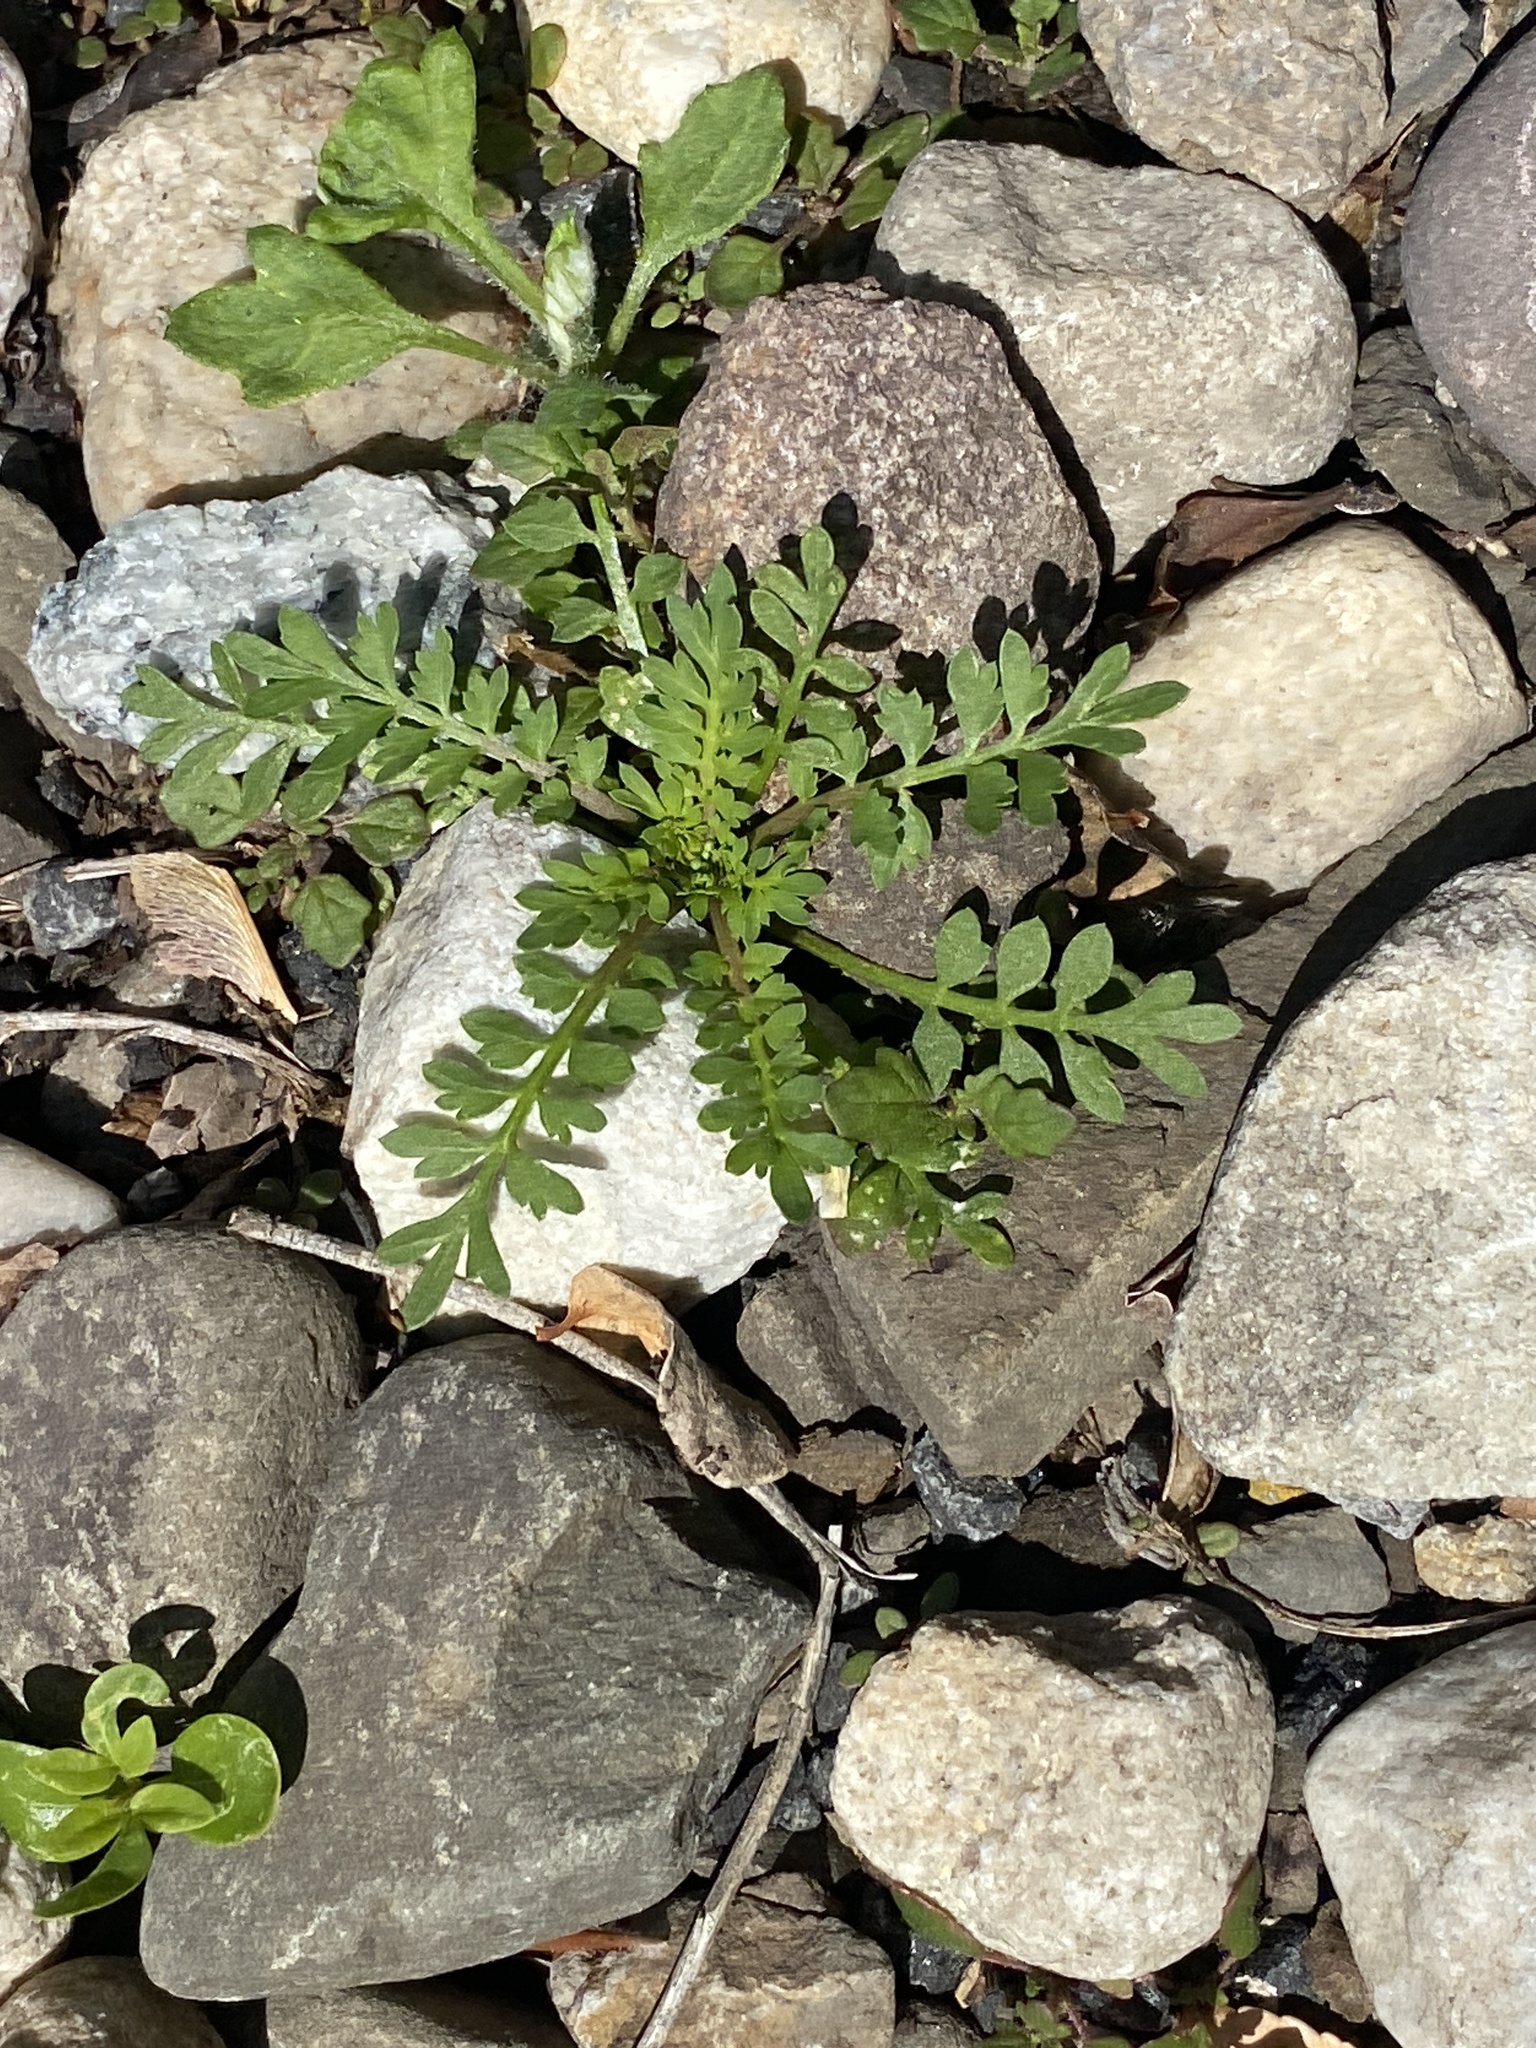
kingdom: Plantae
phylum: Tracheophyta
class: Magnoliopsida
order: Brassicales
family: Brassicaceae
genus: Lepidium
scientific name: Lepidium didymum
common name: Lesser swinecress
